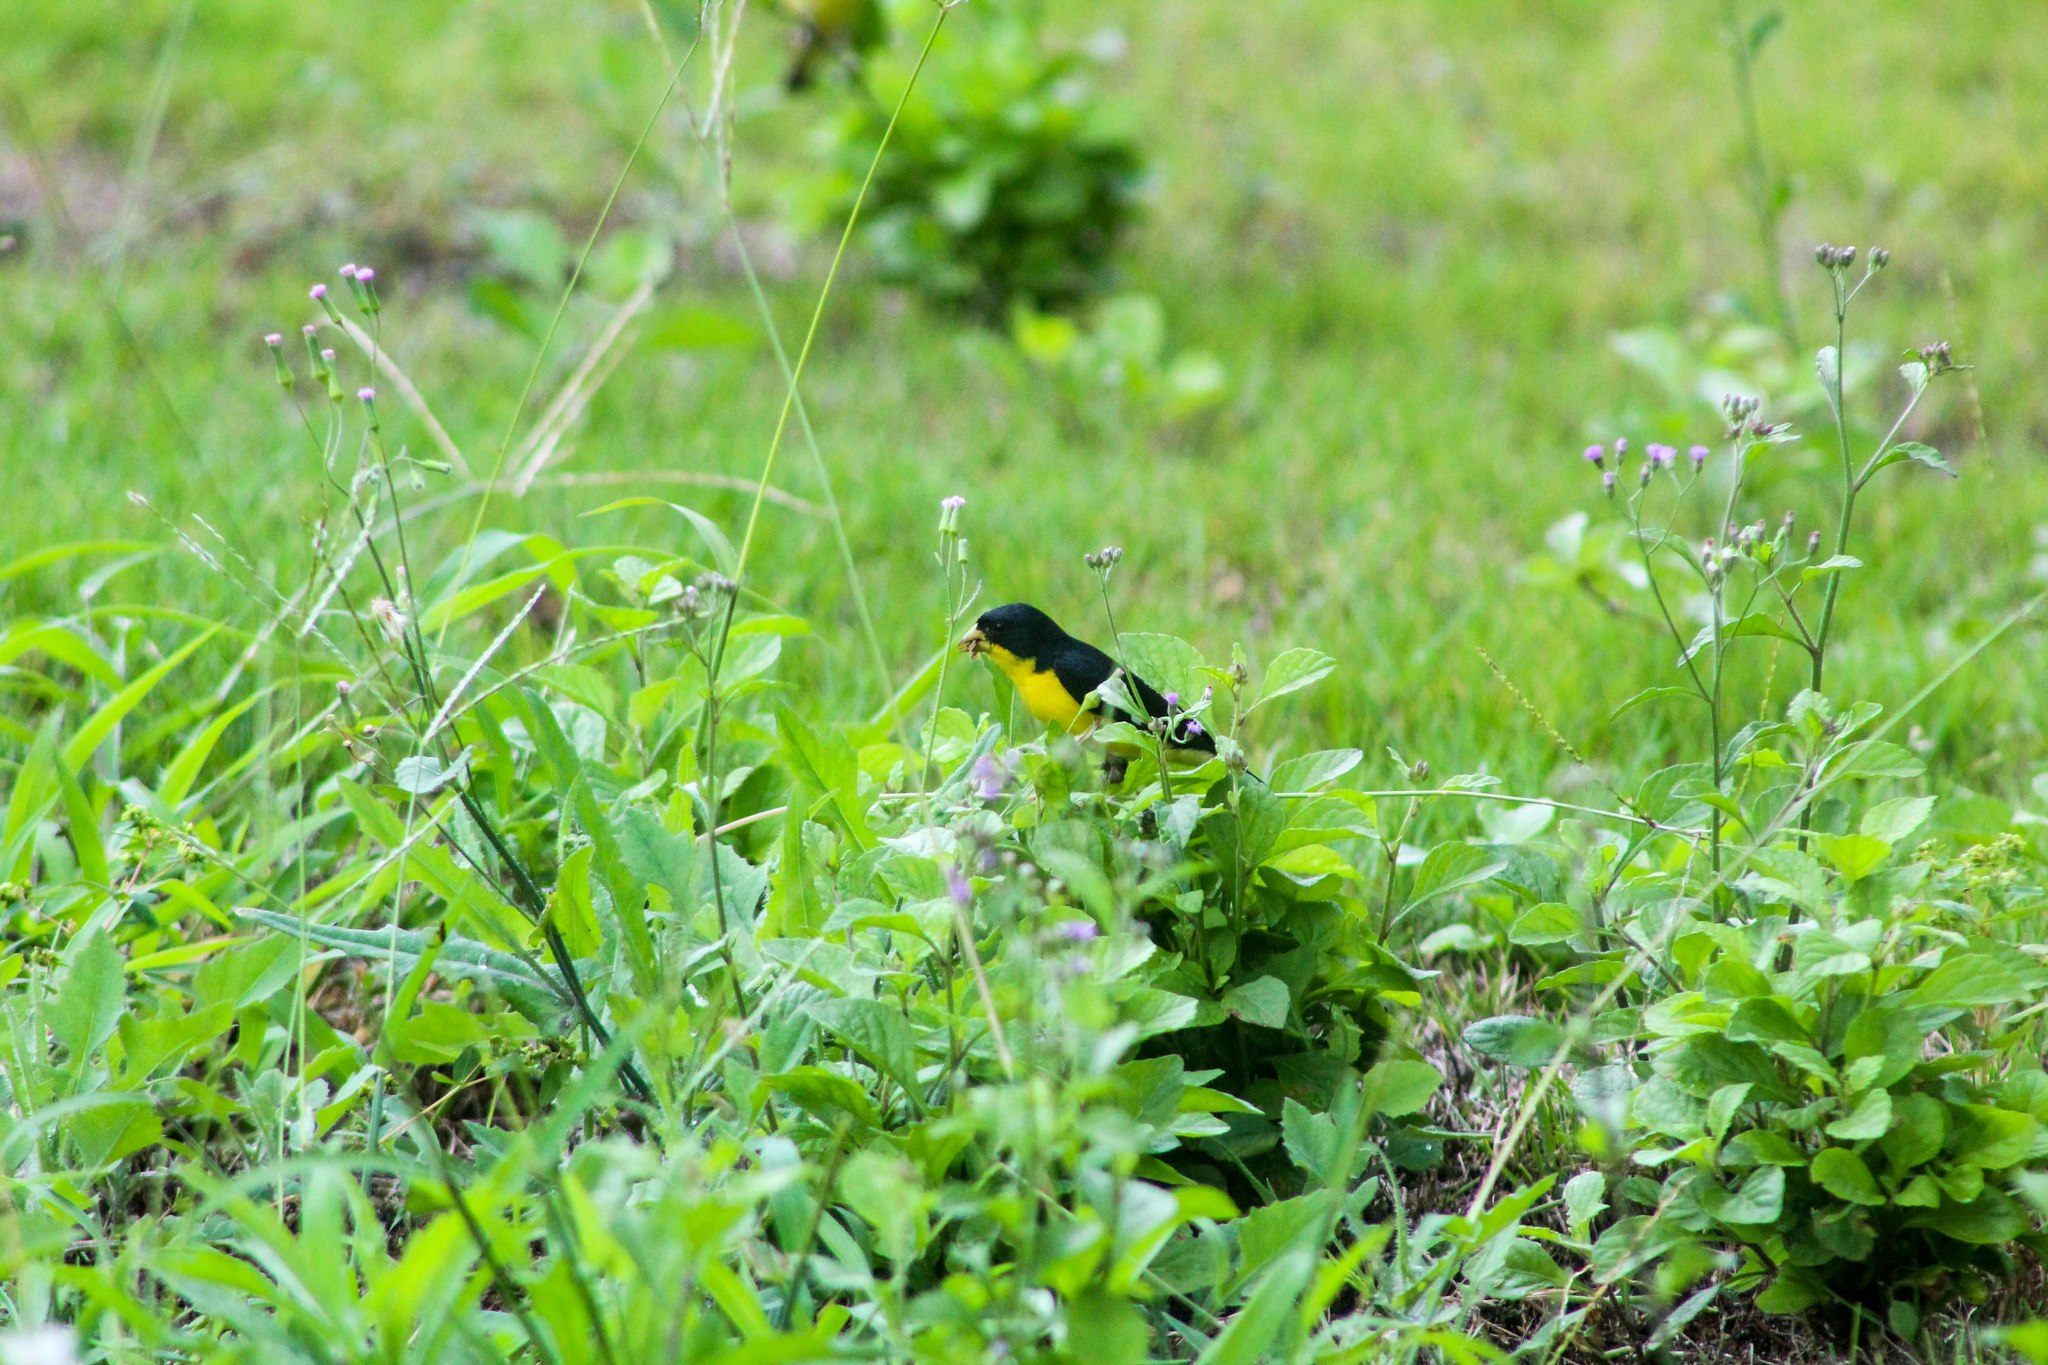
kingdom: Animalia
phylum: Chordata
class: Aves
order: Passeriformes
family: Fringillidae
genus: Spinus
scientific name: Spinus psaltria
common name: Lesser goldfinch
